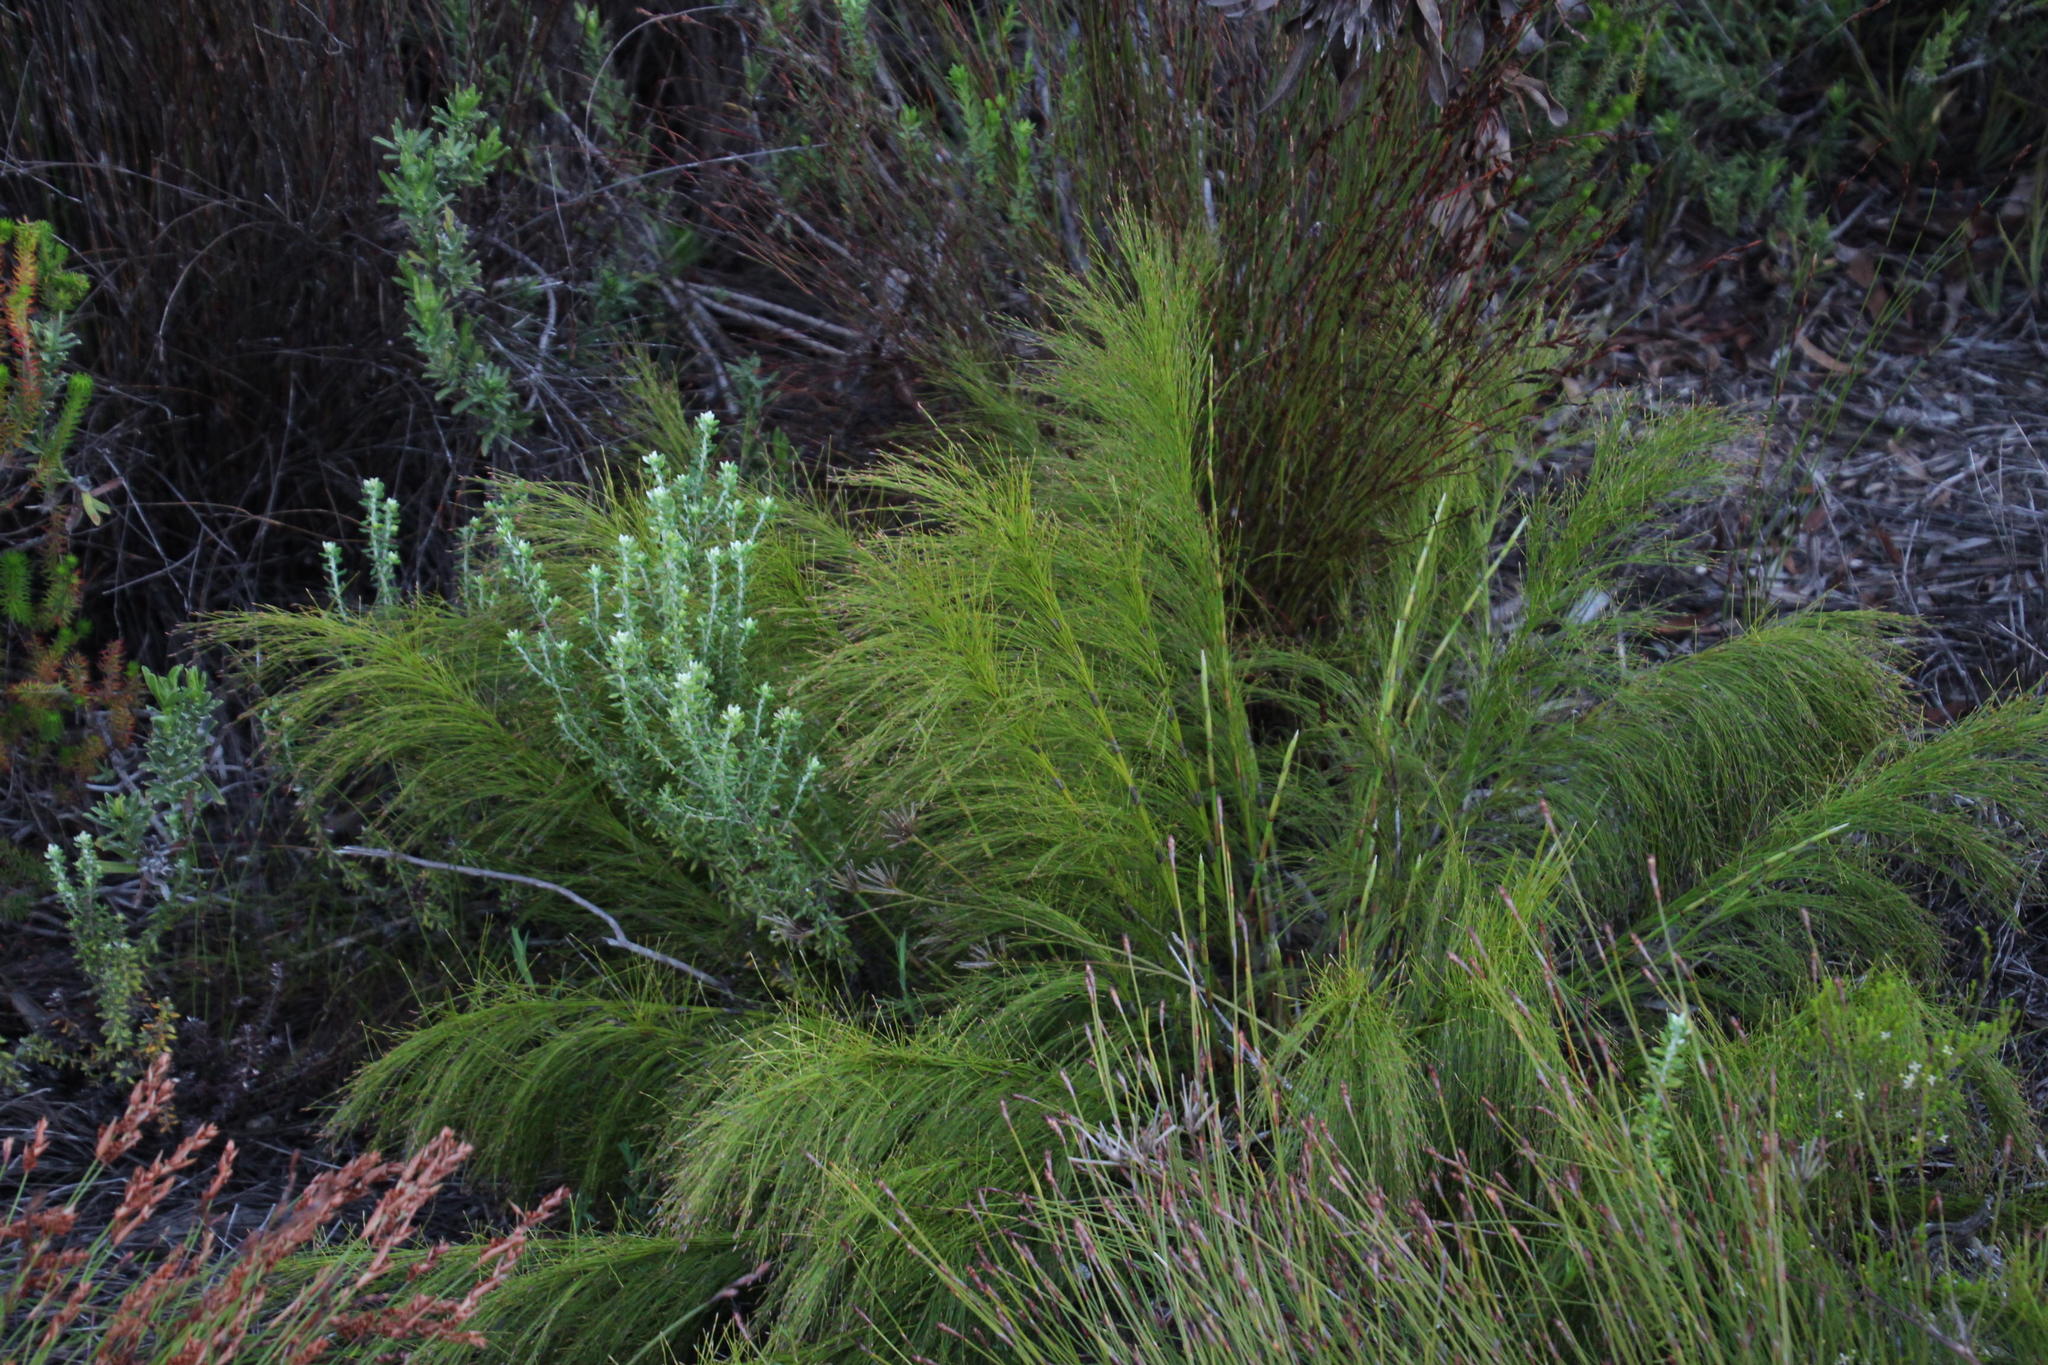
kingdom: Plantae
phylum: Tracheophyta
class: Liliopsida
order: Poales
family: Restionaceae
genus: Restio
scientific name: Restio leptoclados
